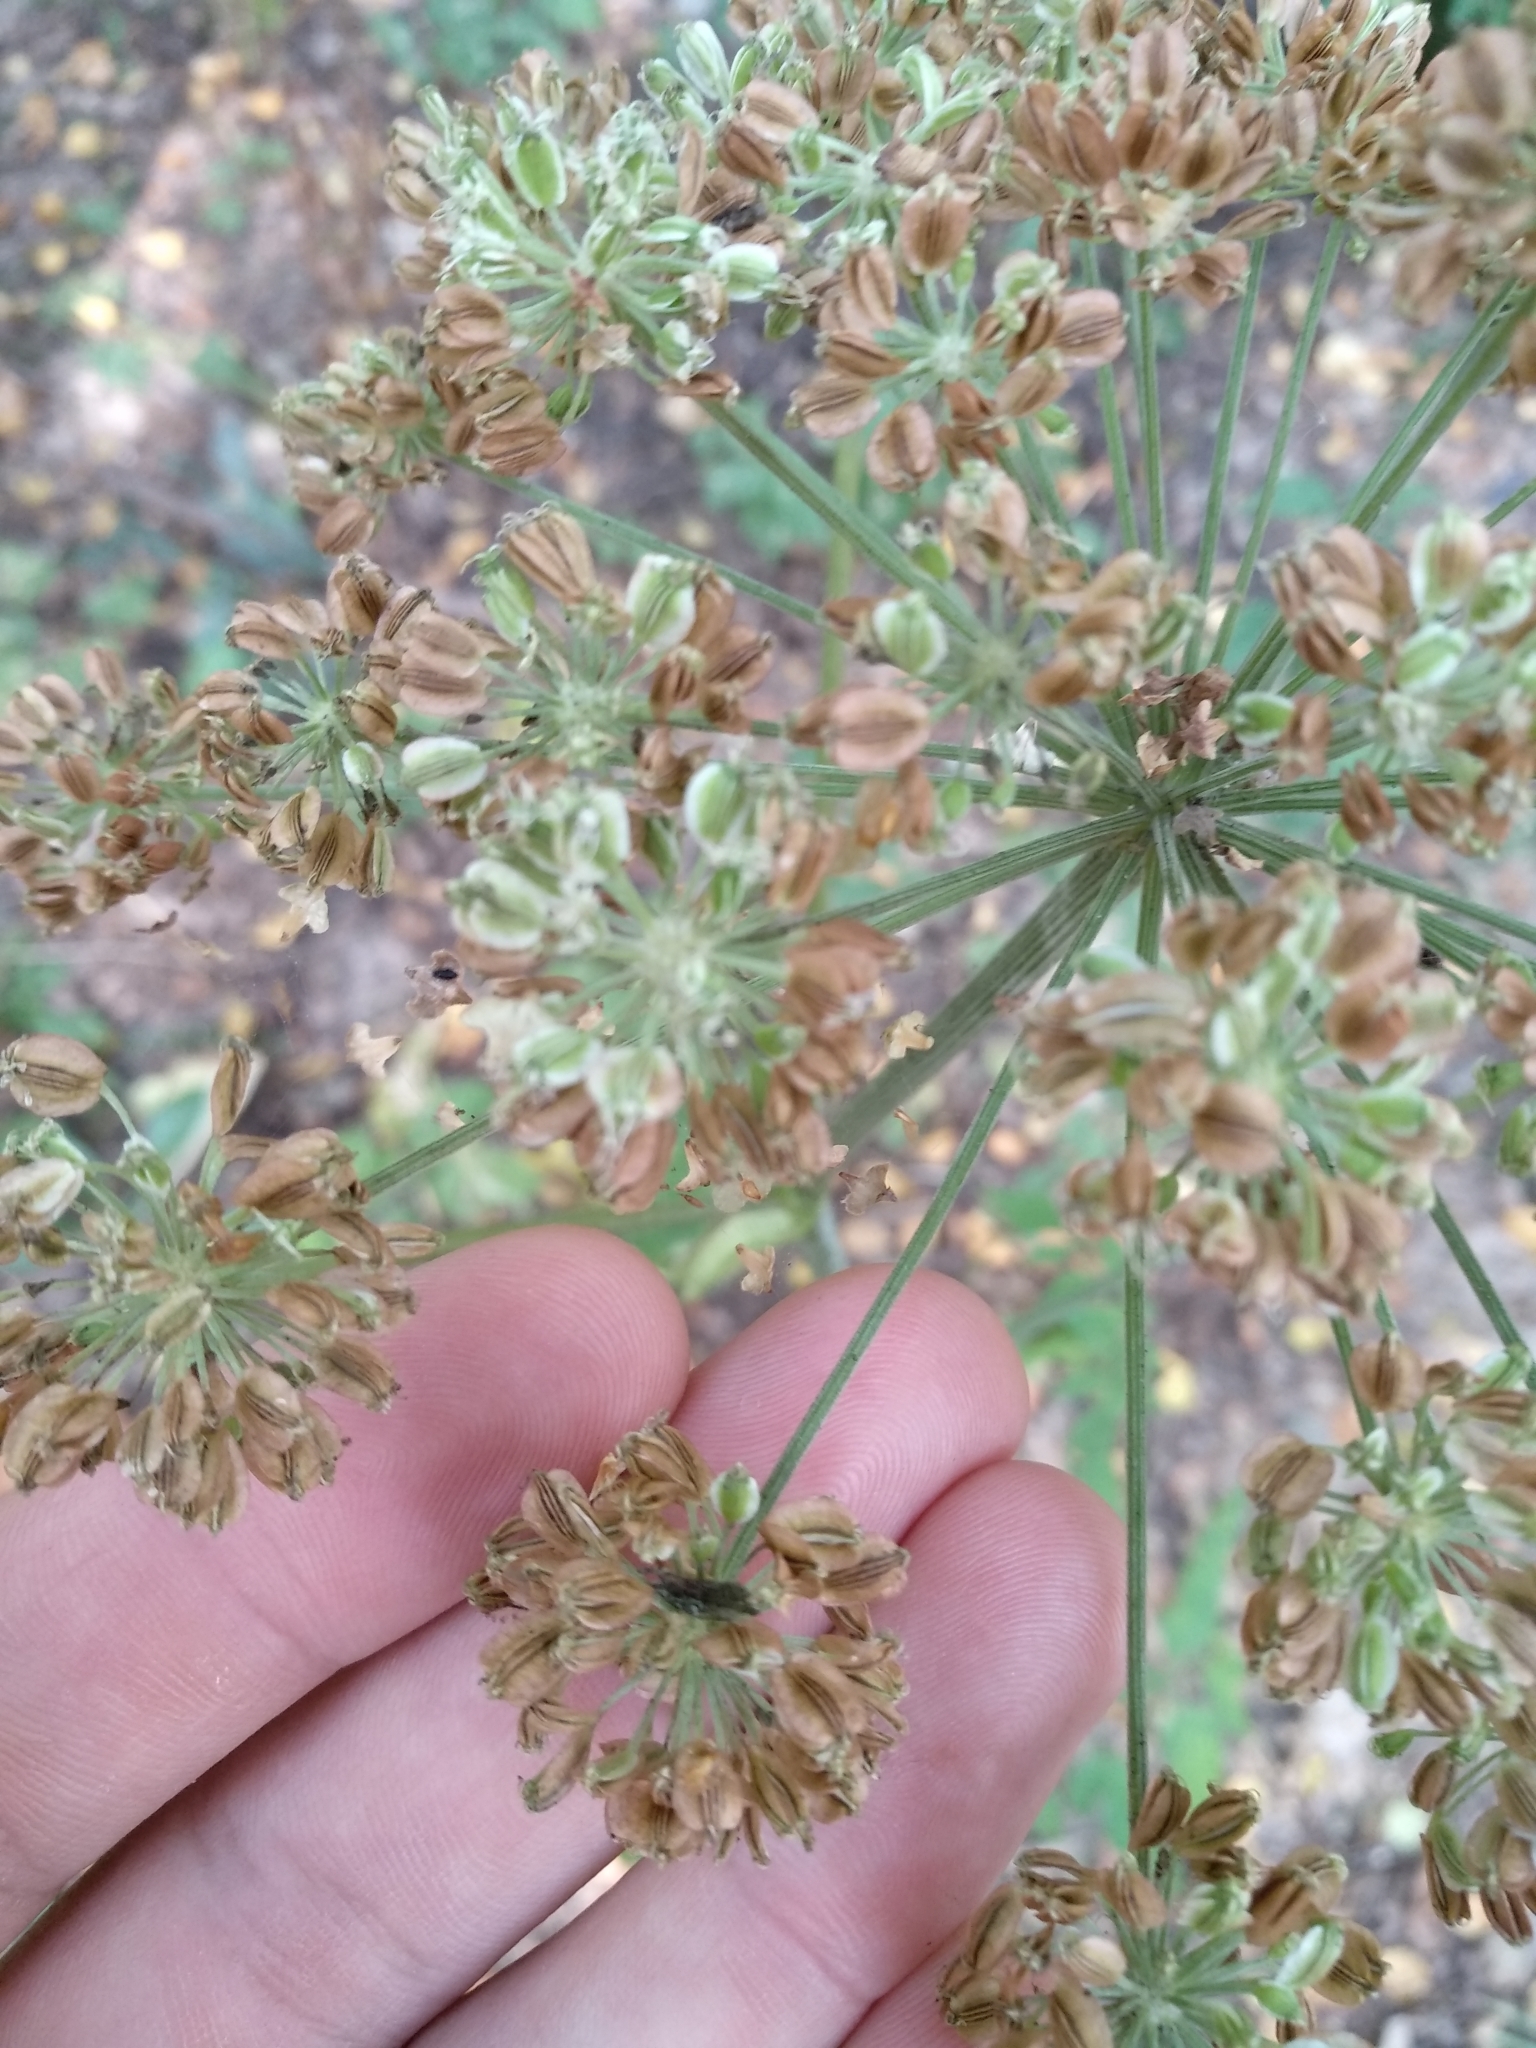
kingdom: Plantae
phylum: Tracheophyta
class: Magnoliopsida
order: Apiales
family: Apiaceae
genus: Angelica
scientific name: Angelica sylvestris
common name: Wild angelica
